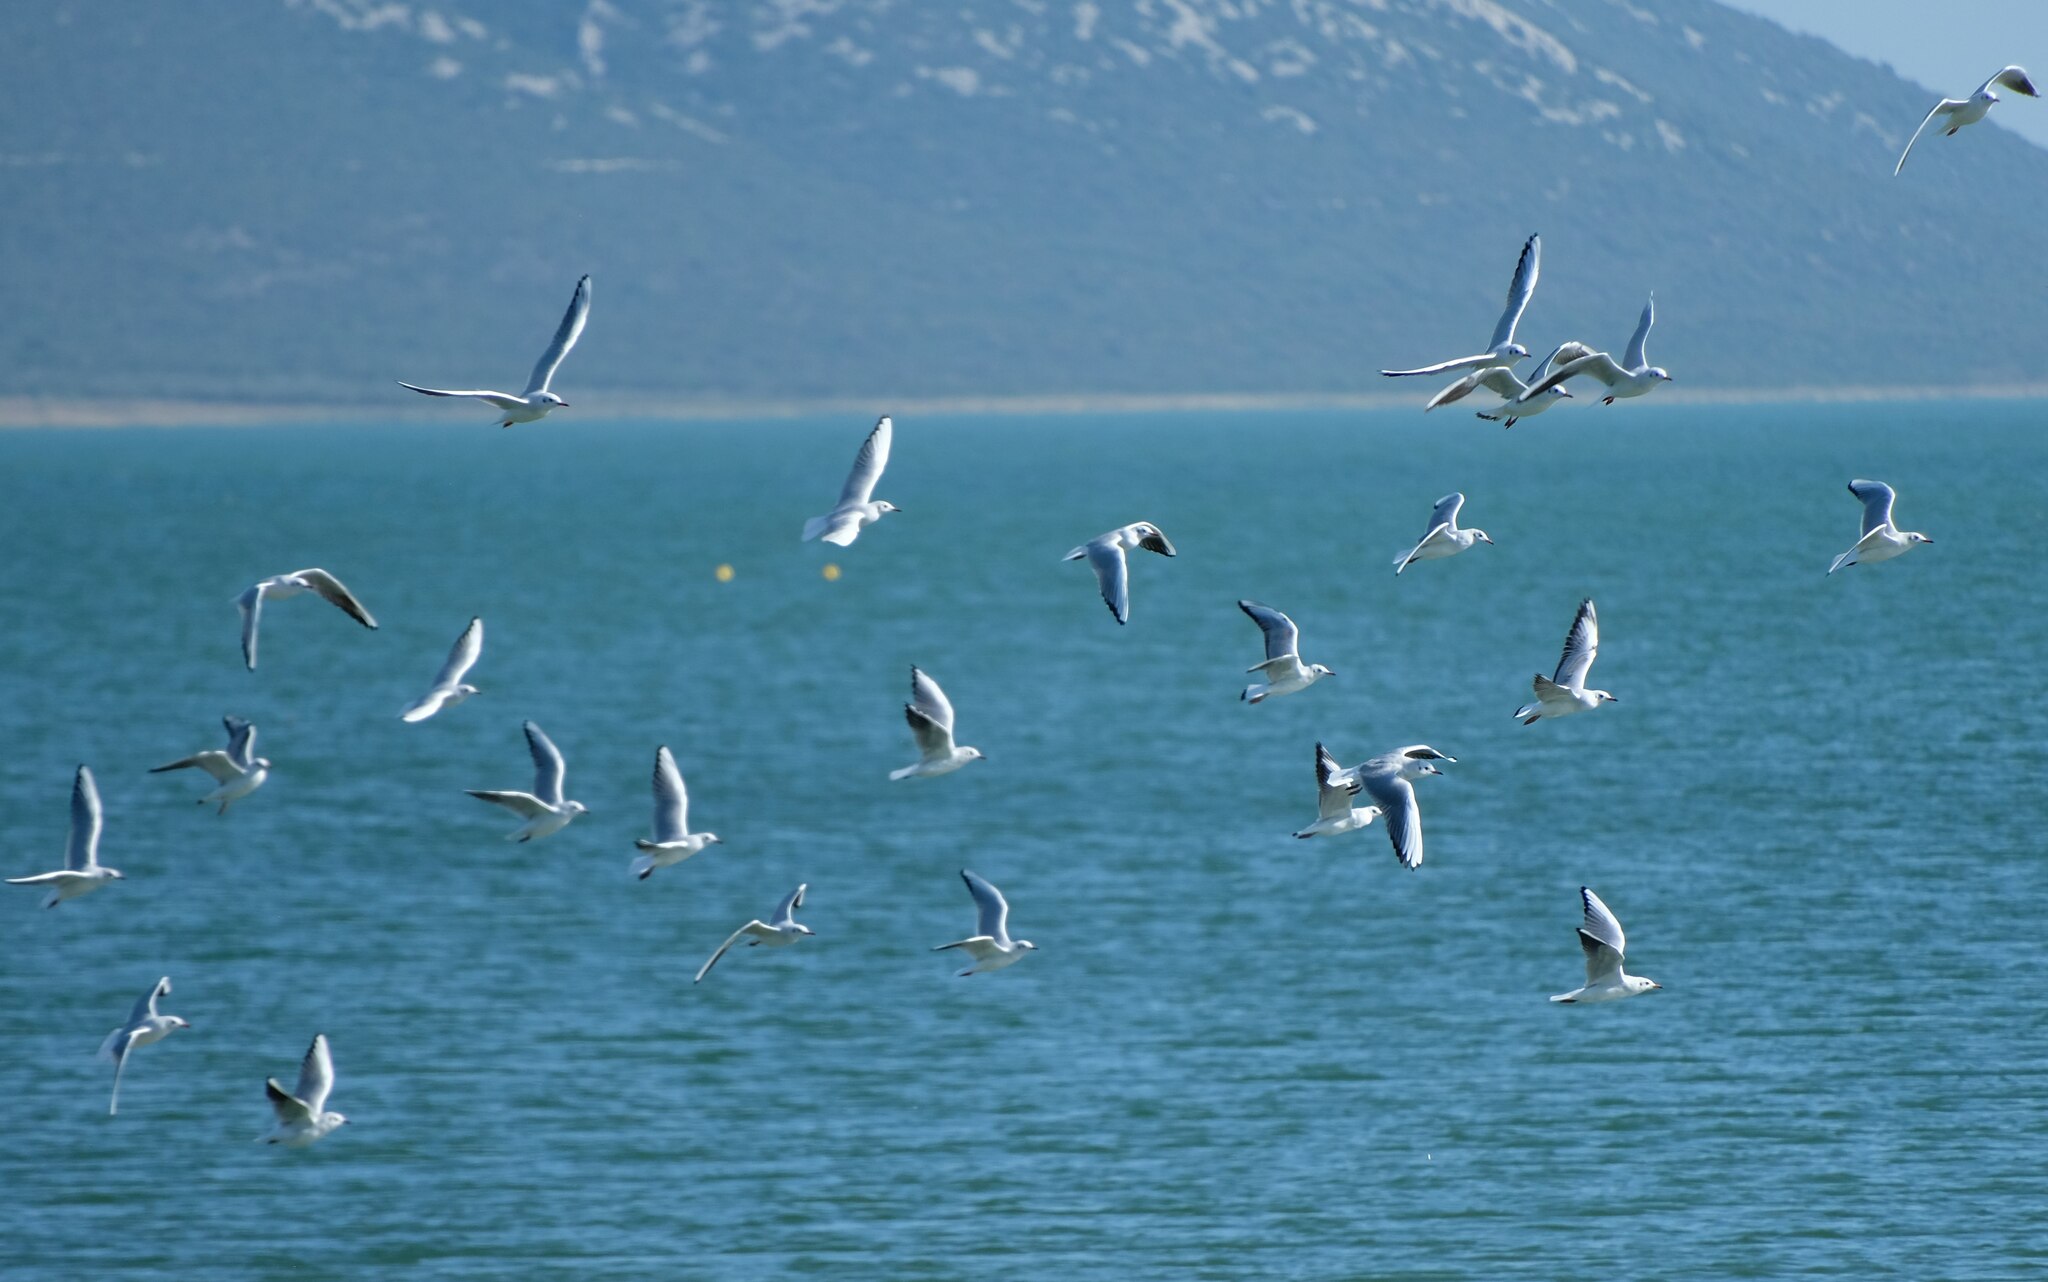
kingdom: Animalia
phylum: Chordata
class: Aves
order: Charadriiformes
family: Laridae
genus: Chroicocephalus
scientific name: Chroicocephalus ridibundus
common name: Black-headed gull
